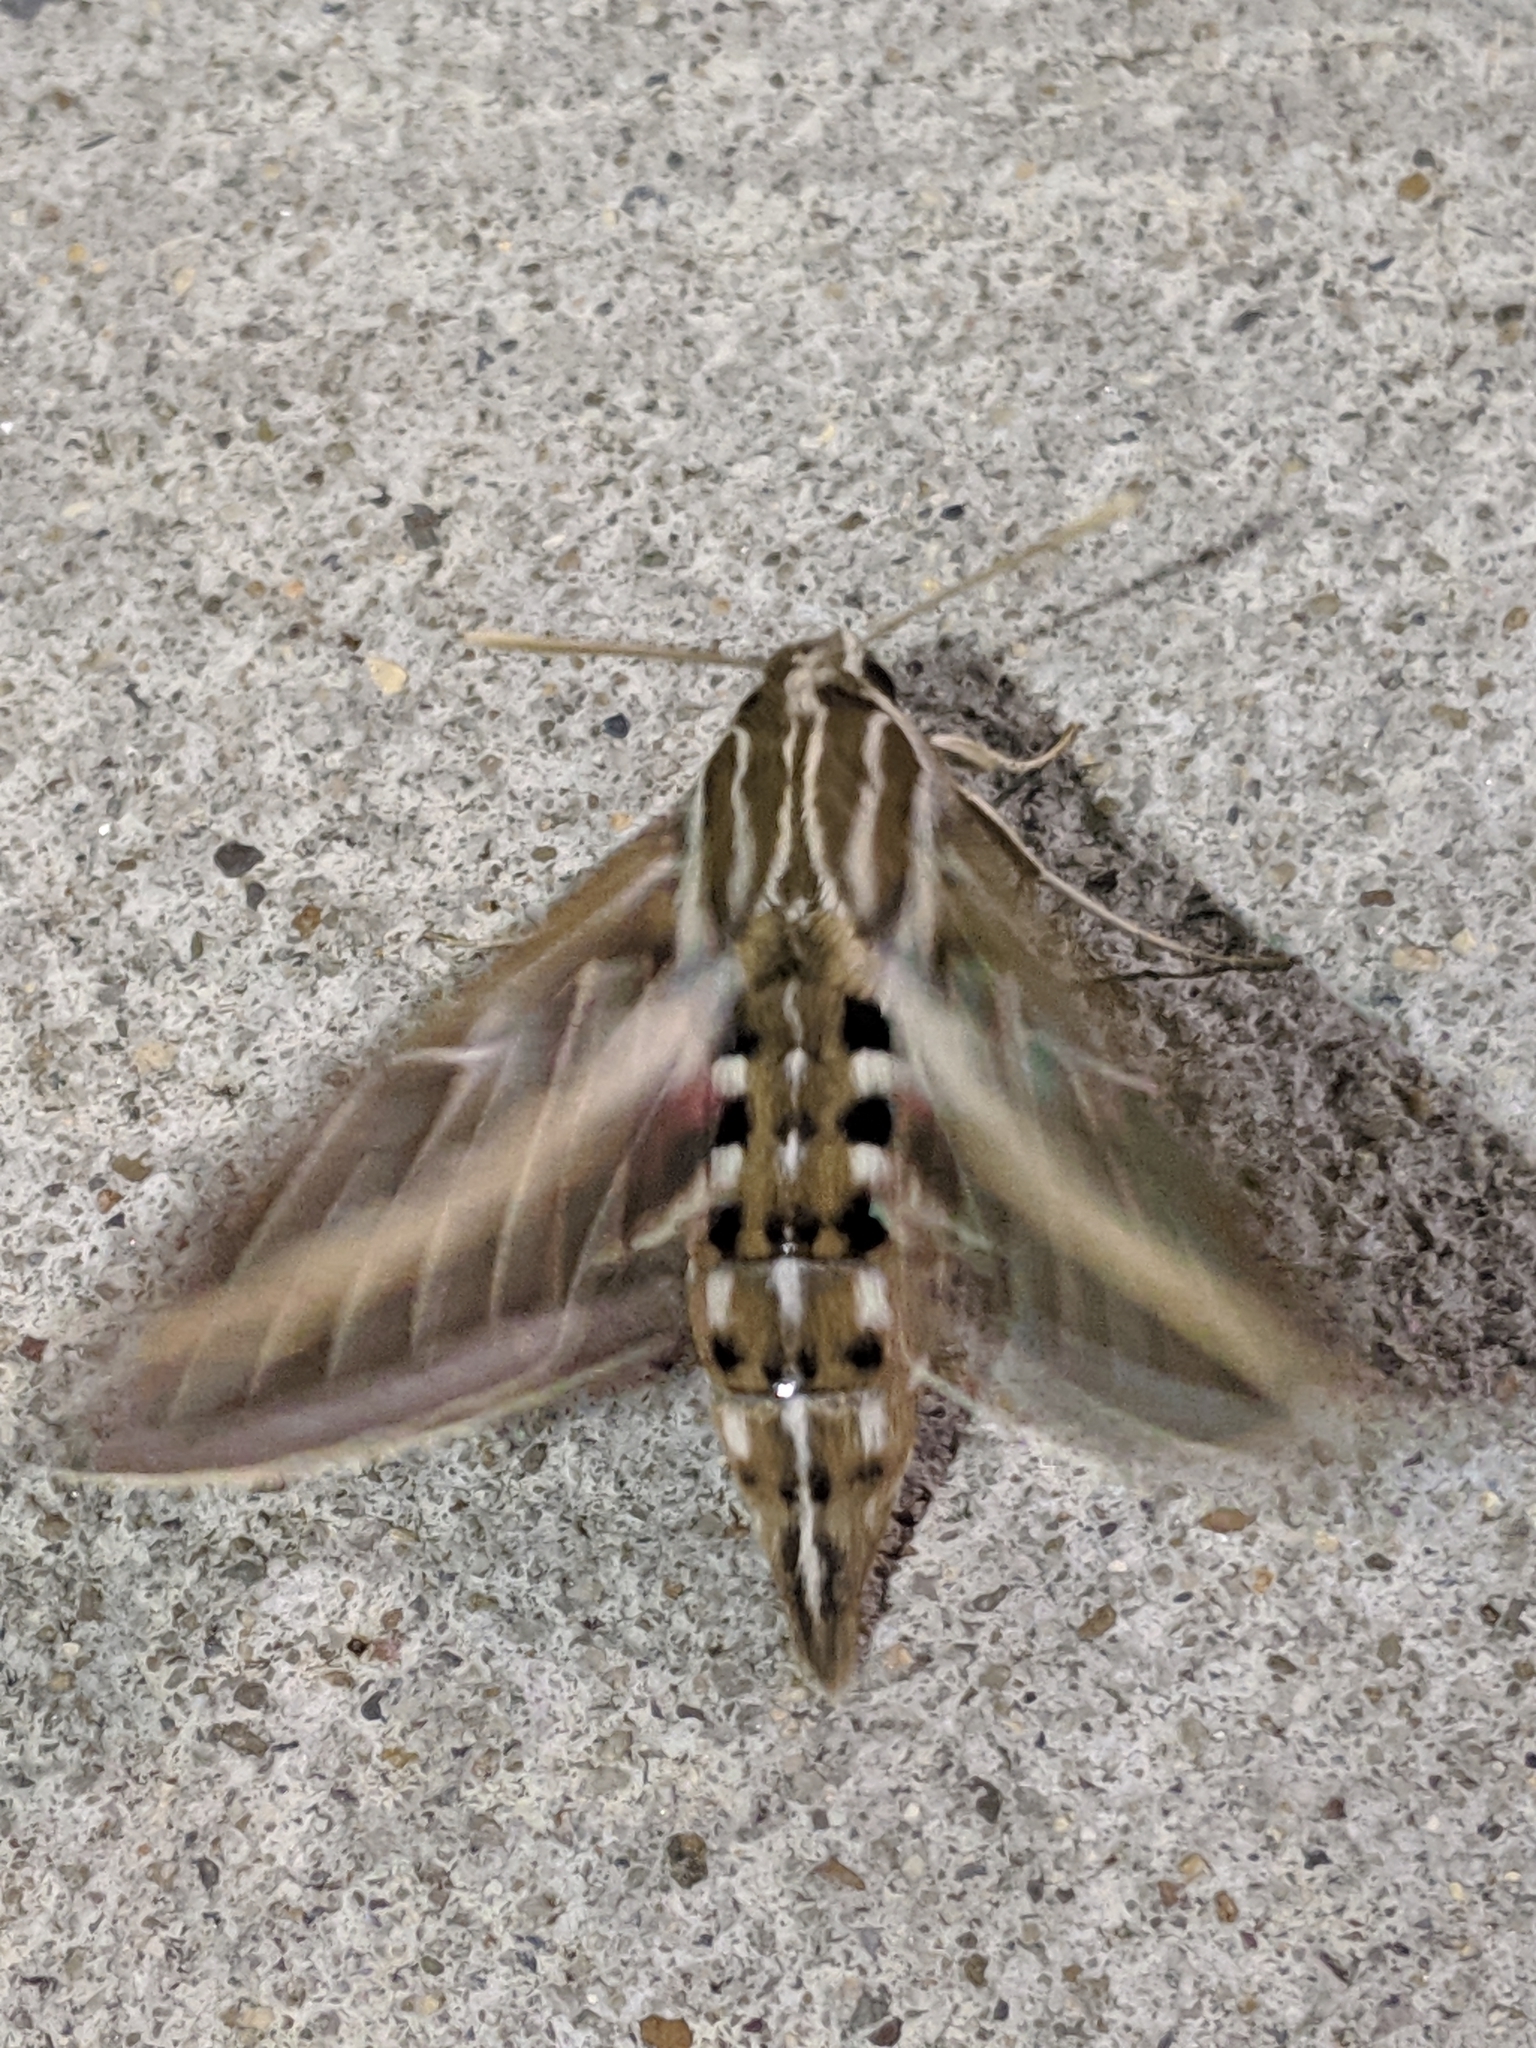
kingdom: Animalia
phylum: Arthropoda
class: Insecta
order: Lepidoptera
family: Sphingidae
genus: Hyles
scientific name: Hyles lineata
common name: White-lined sphinx
